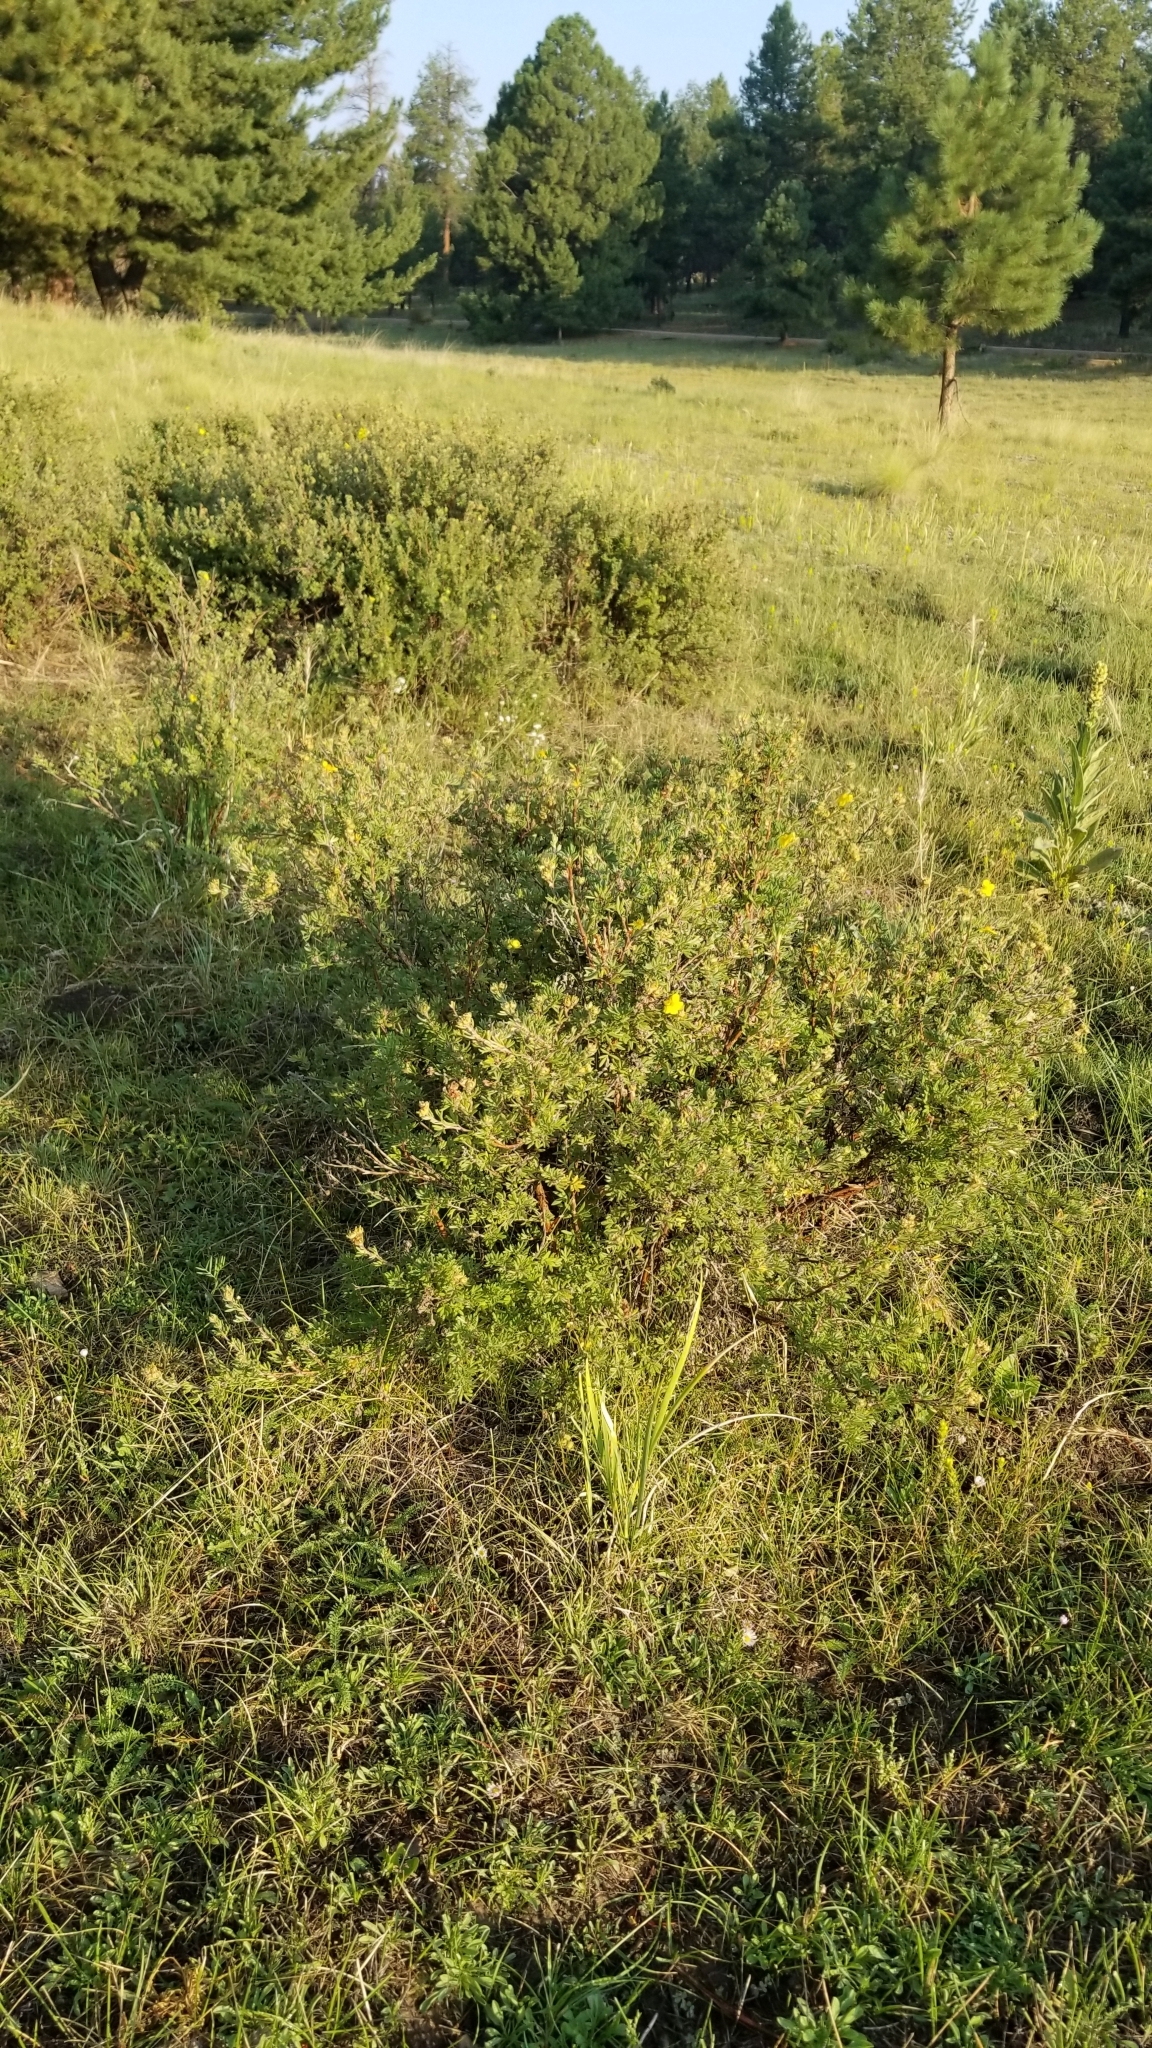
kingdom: Plantae
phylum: Tracheophyta
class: Magnoliopsida
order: Rosales
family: Rosaceae
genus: Dasiphora
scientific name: Dasiphora fruticosa
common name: Shrubby cinquefoil
